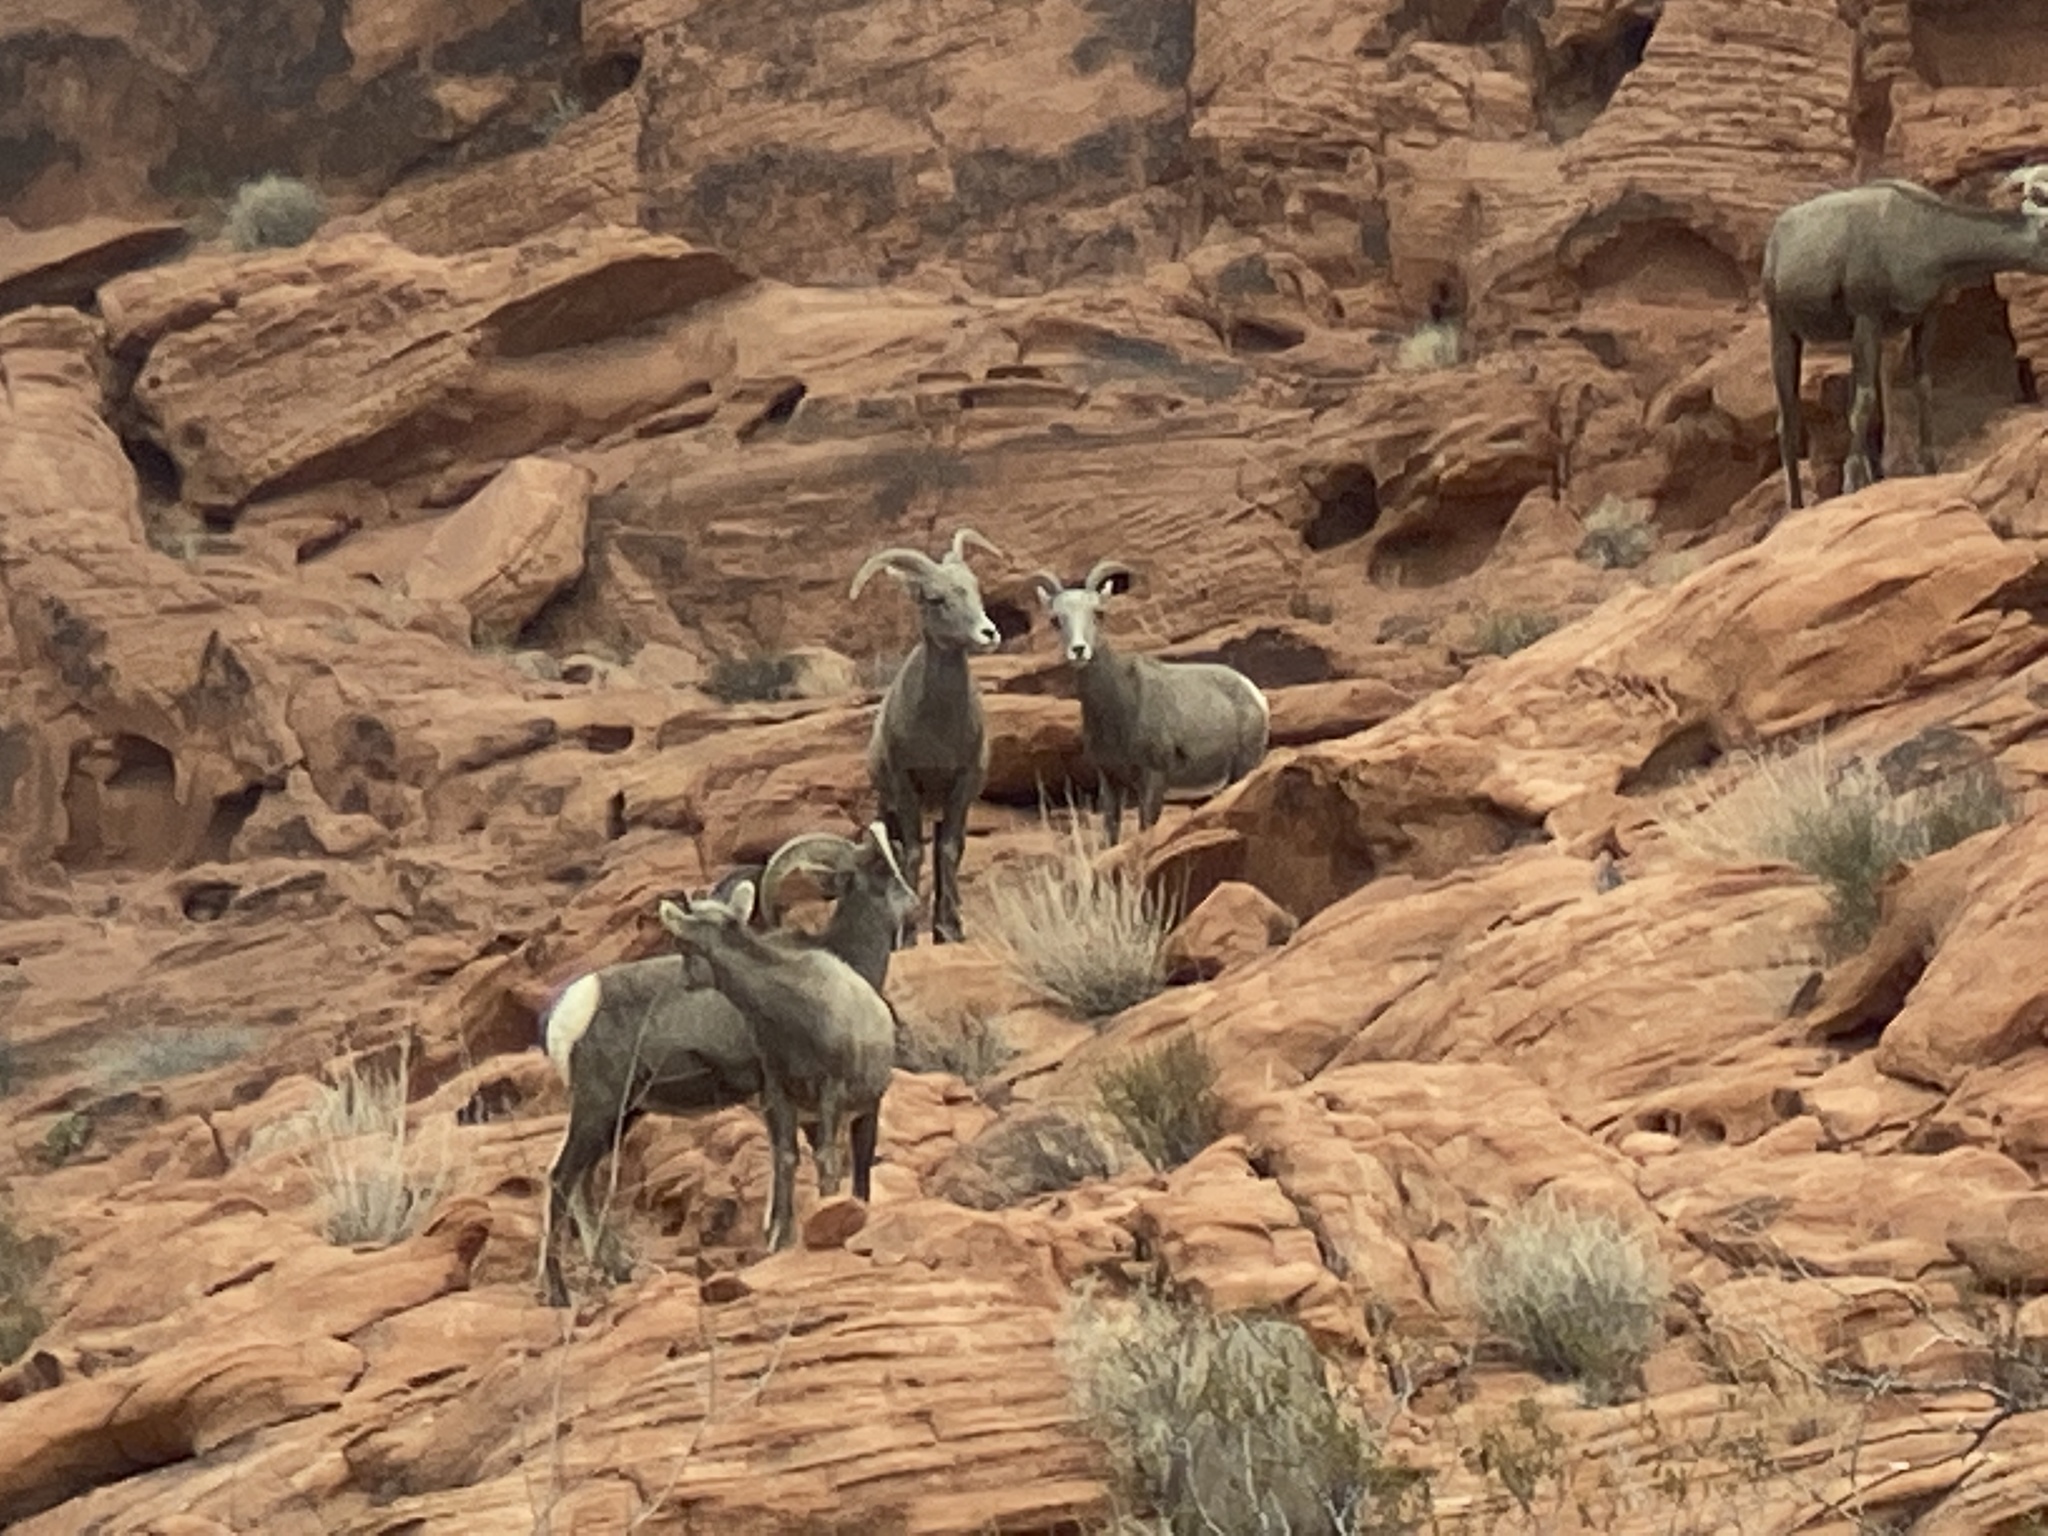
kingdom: Animalia
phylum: Chordata
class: Mammalia
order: Artiodactyla
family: Bovidae
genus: Ovis
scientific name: Ovis canadensis
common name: Bighorn sheep
